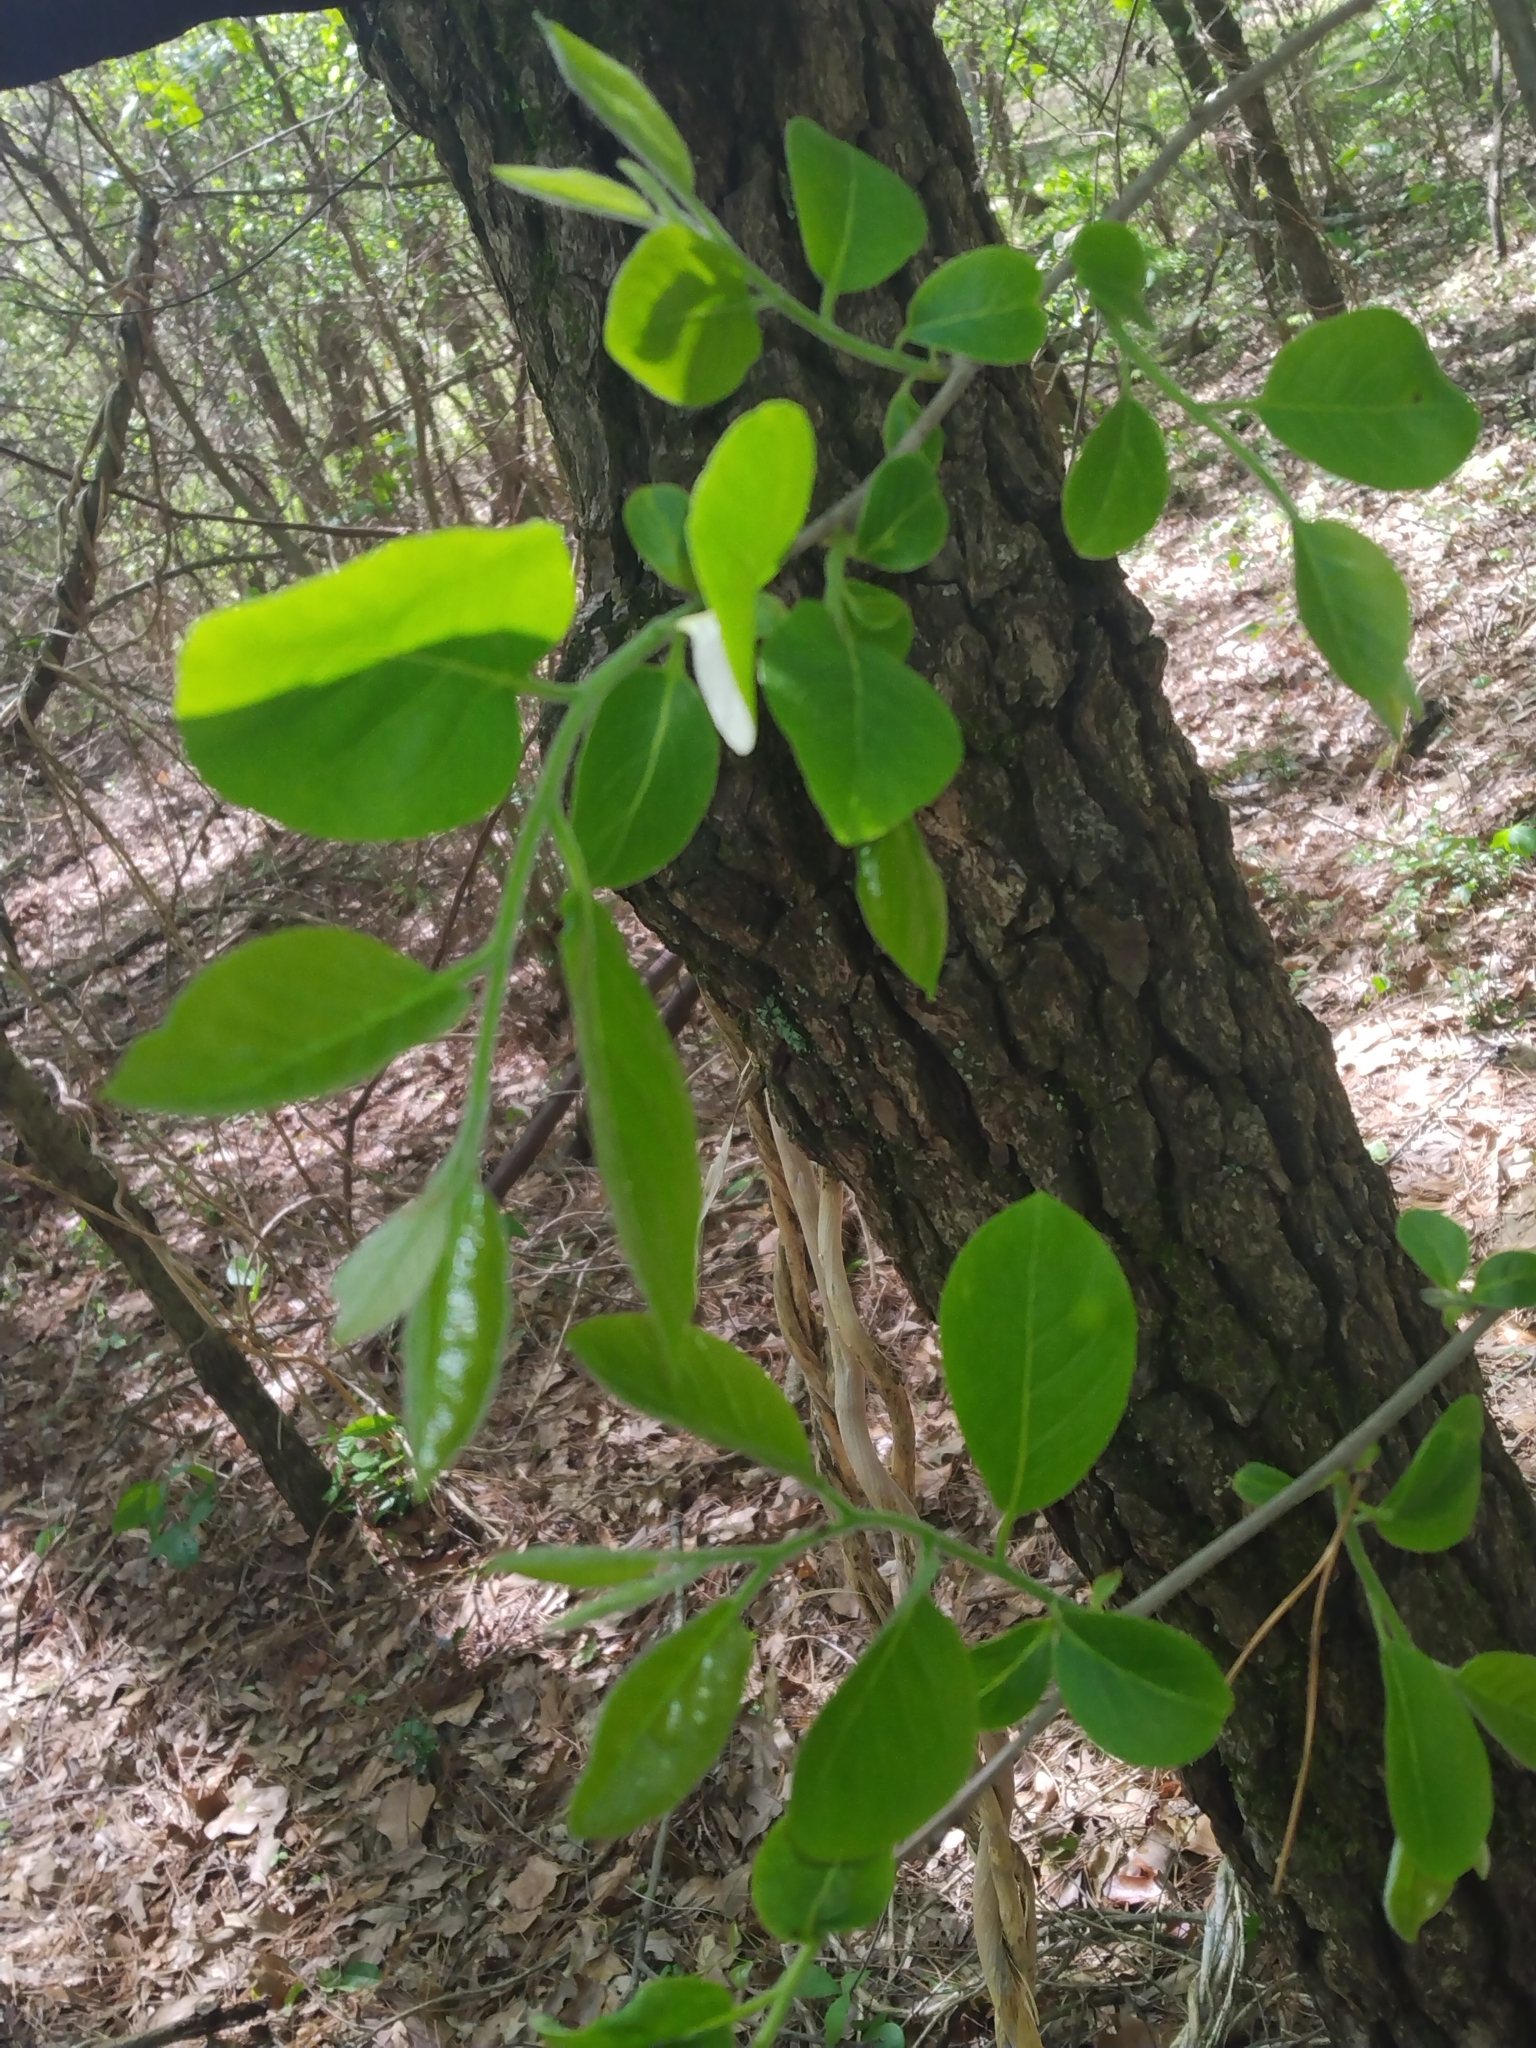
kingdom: Plantae
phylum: Tracheophyta
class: Magnoliopsida
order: Ericales
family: Ebenaceae
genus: Diospyros
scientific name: Diospyros virginiana
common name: Persimmon
